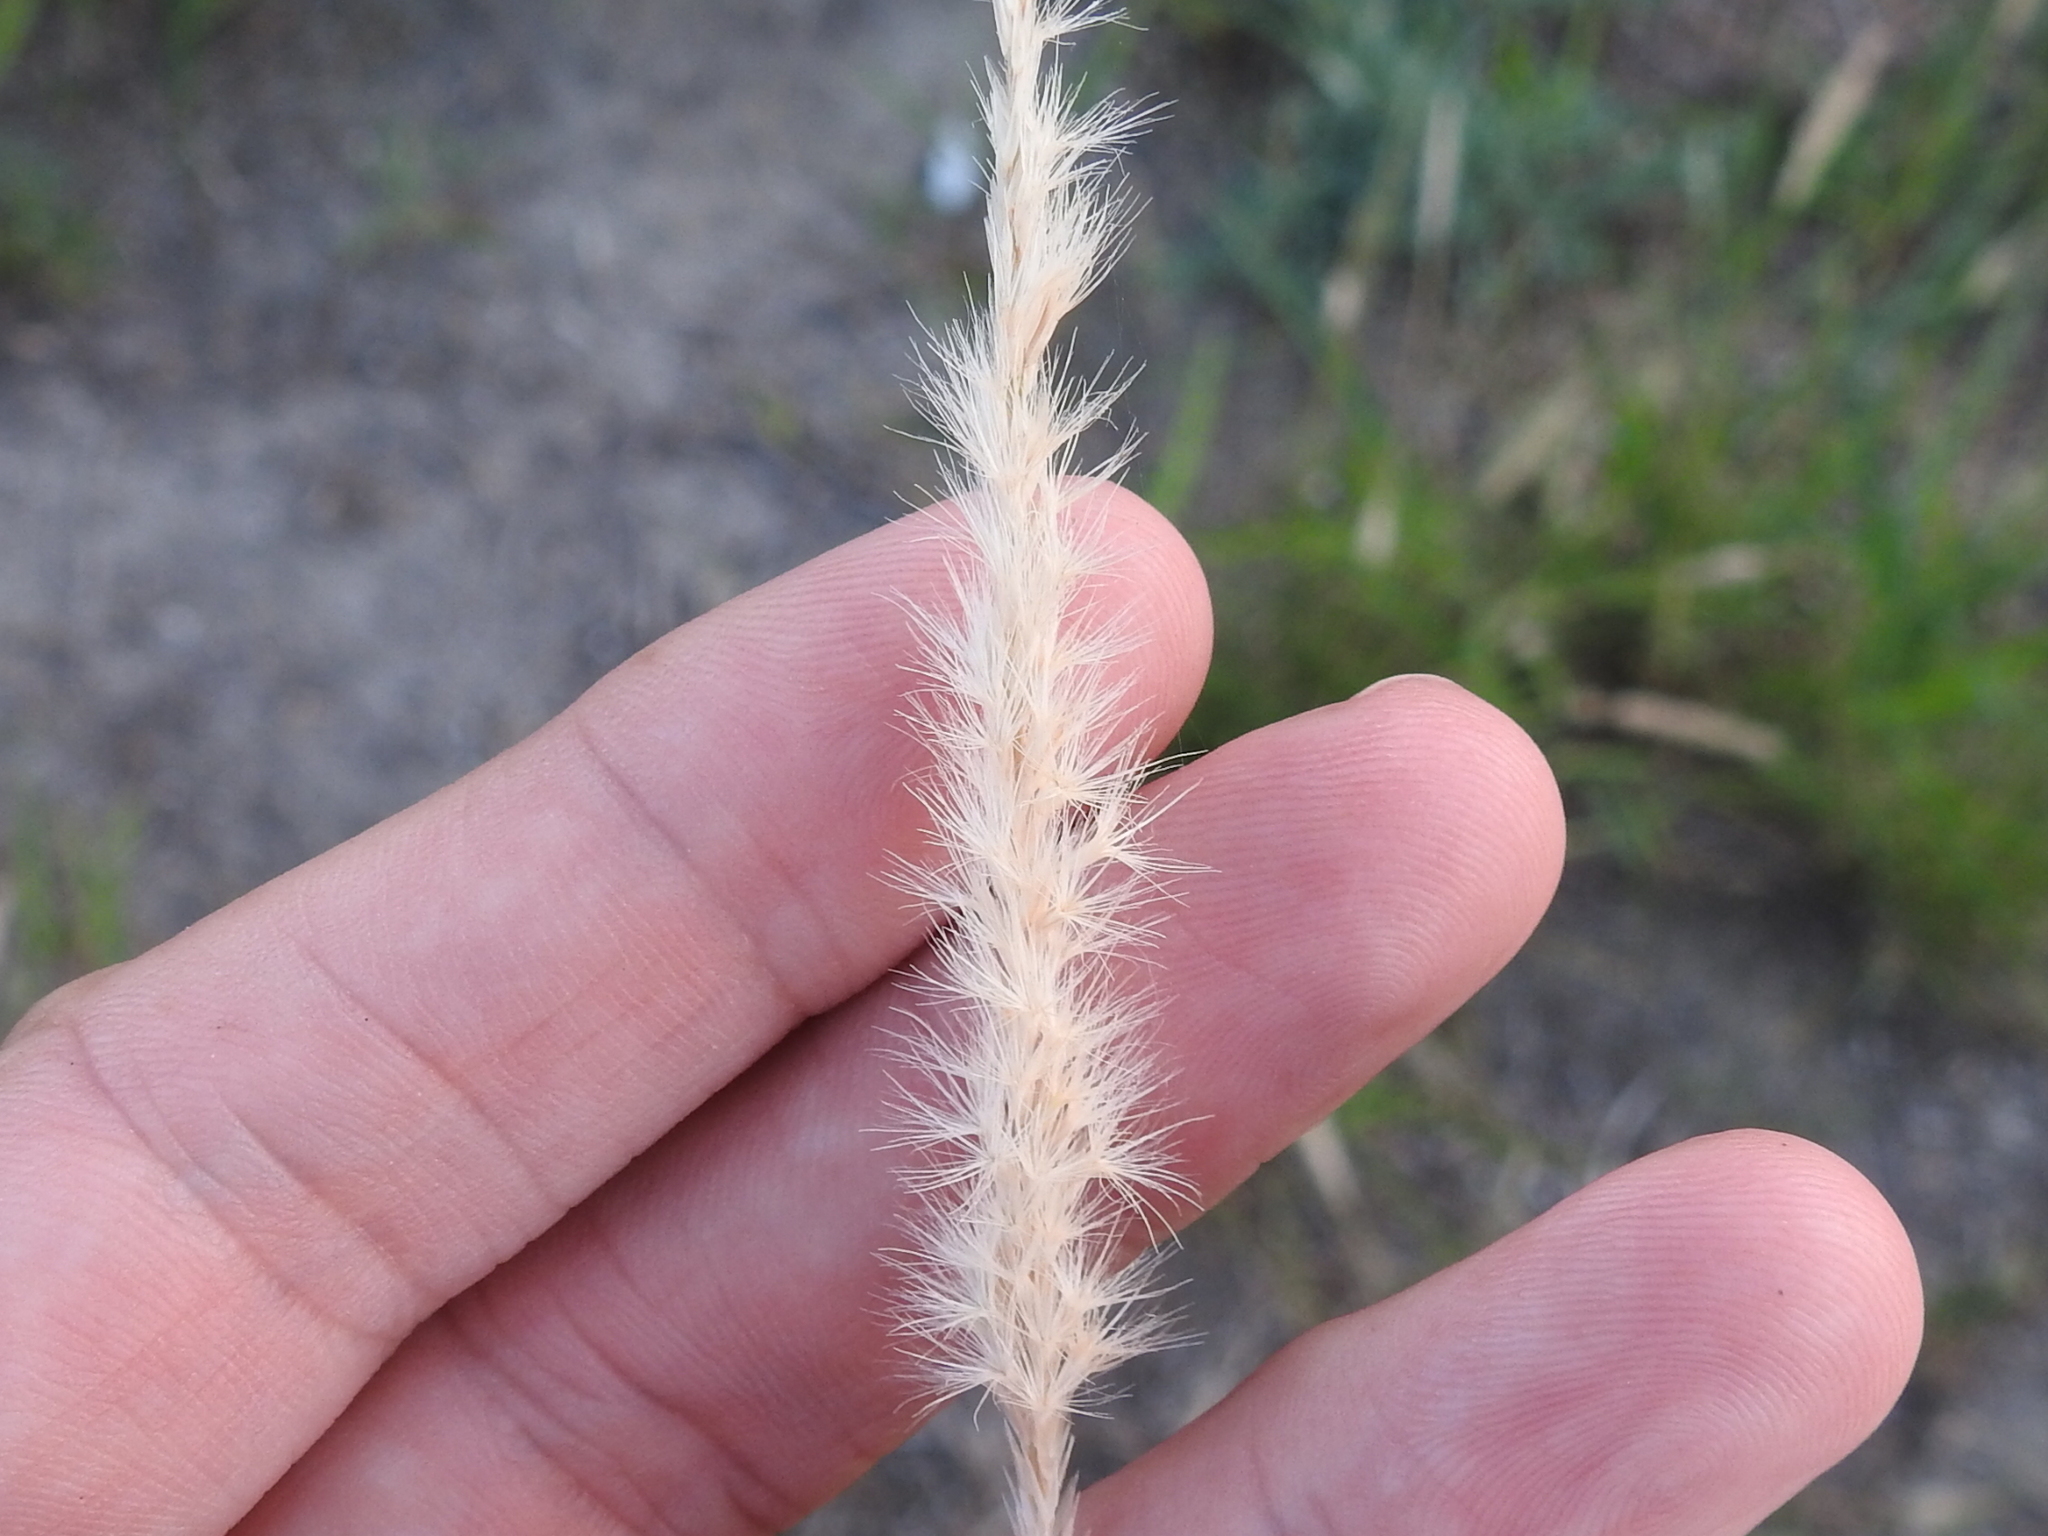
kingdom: Plantae
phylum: Tracheophyta
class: Liliopsida
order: Poales
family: Poaceae
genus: Pappophorum
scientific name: Pappophorum
